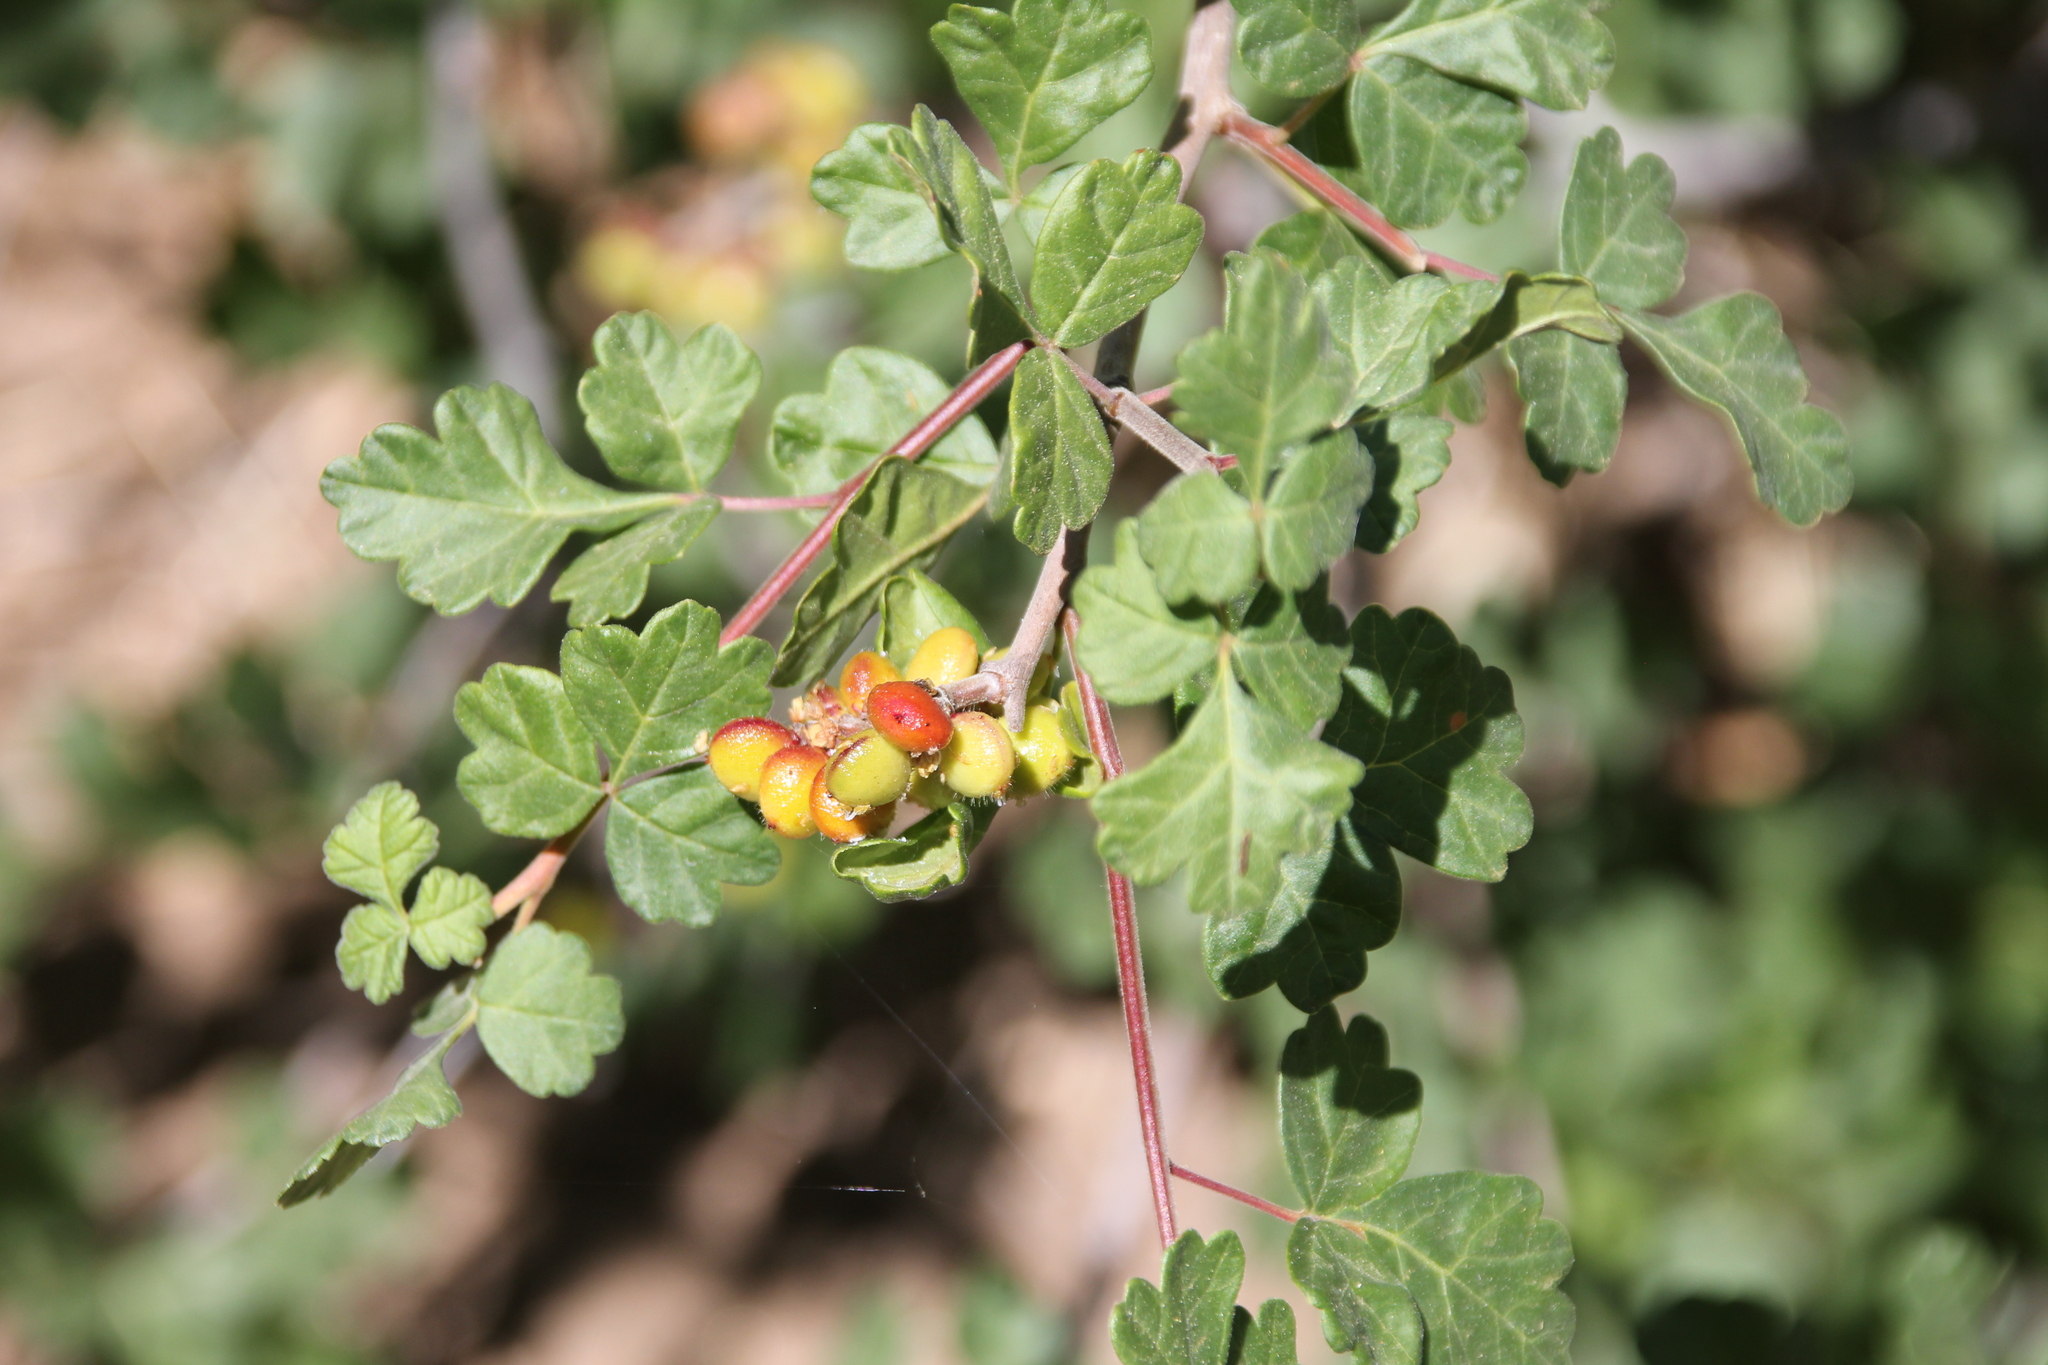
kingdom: Plantae
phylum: Tracheophyta
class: Magnoliopsida
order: Sapindales
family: Anacardiaceae
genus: Rhus
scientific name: Rhus aromatica
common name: Aromatic sumac
